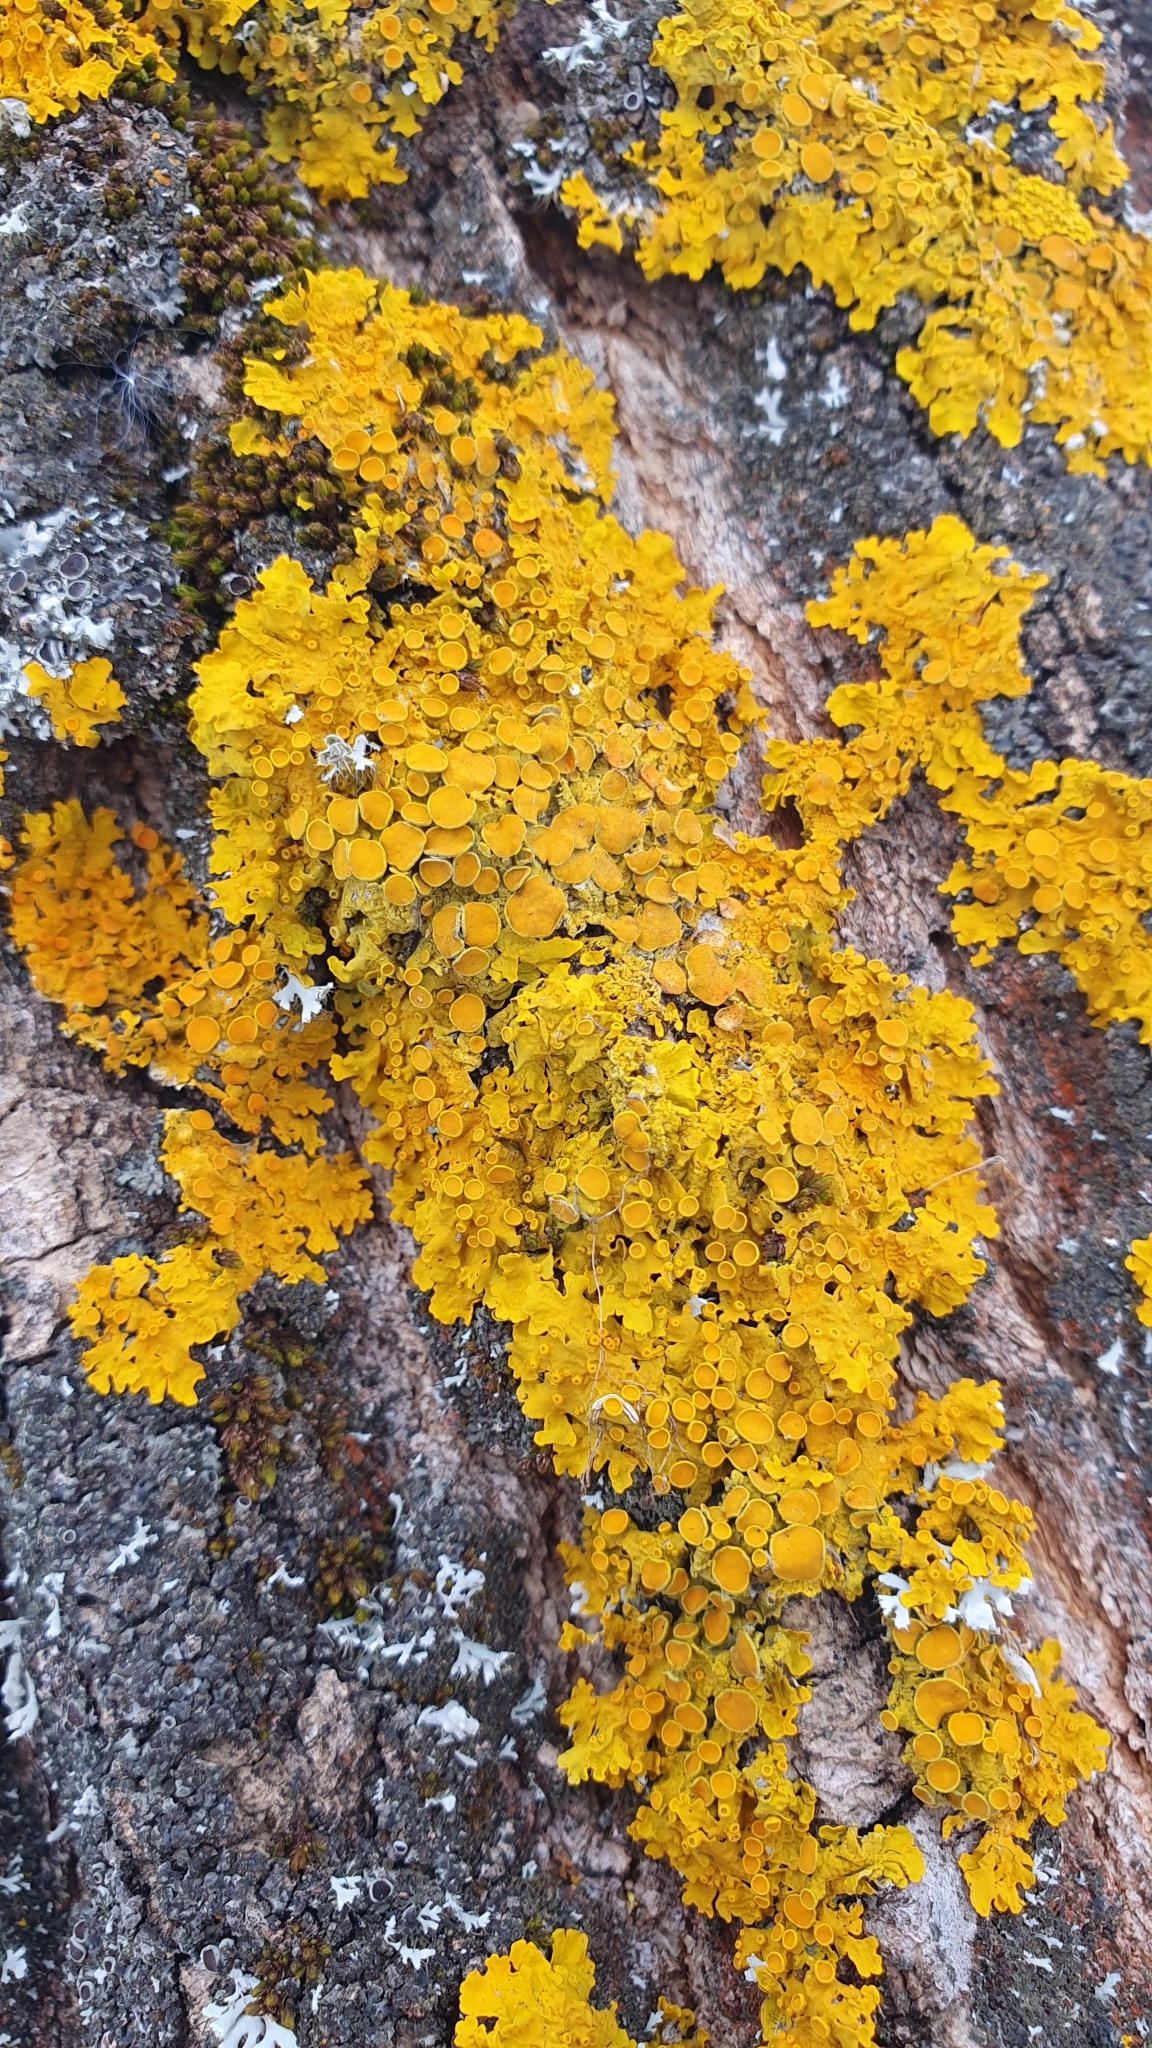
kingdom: Fungi
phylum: Ascomycota
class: Lecanoromycetes
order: Teloschistales
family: Teloschistaceae
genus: Xanthoria
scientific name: Xanthoria parietina
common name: Common orange lichen
